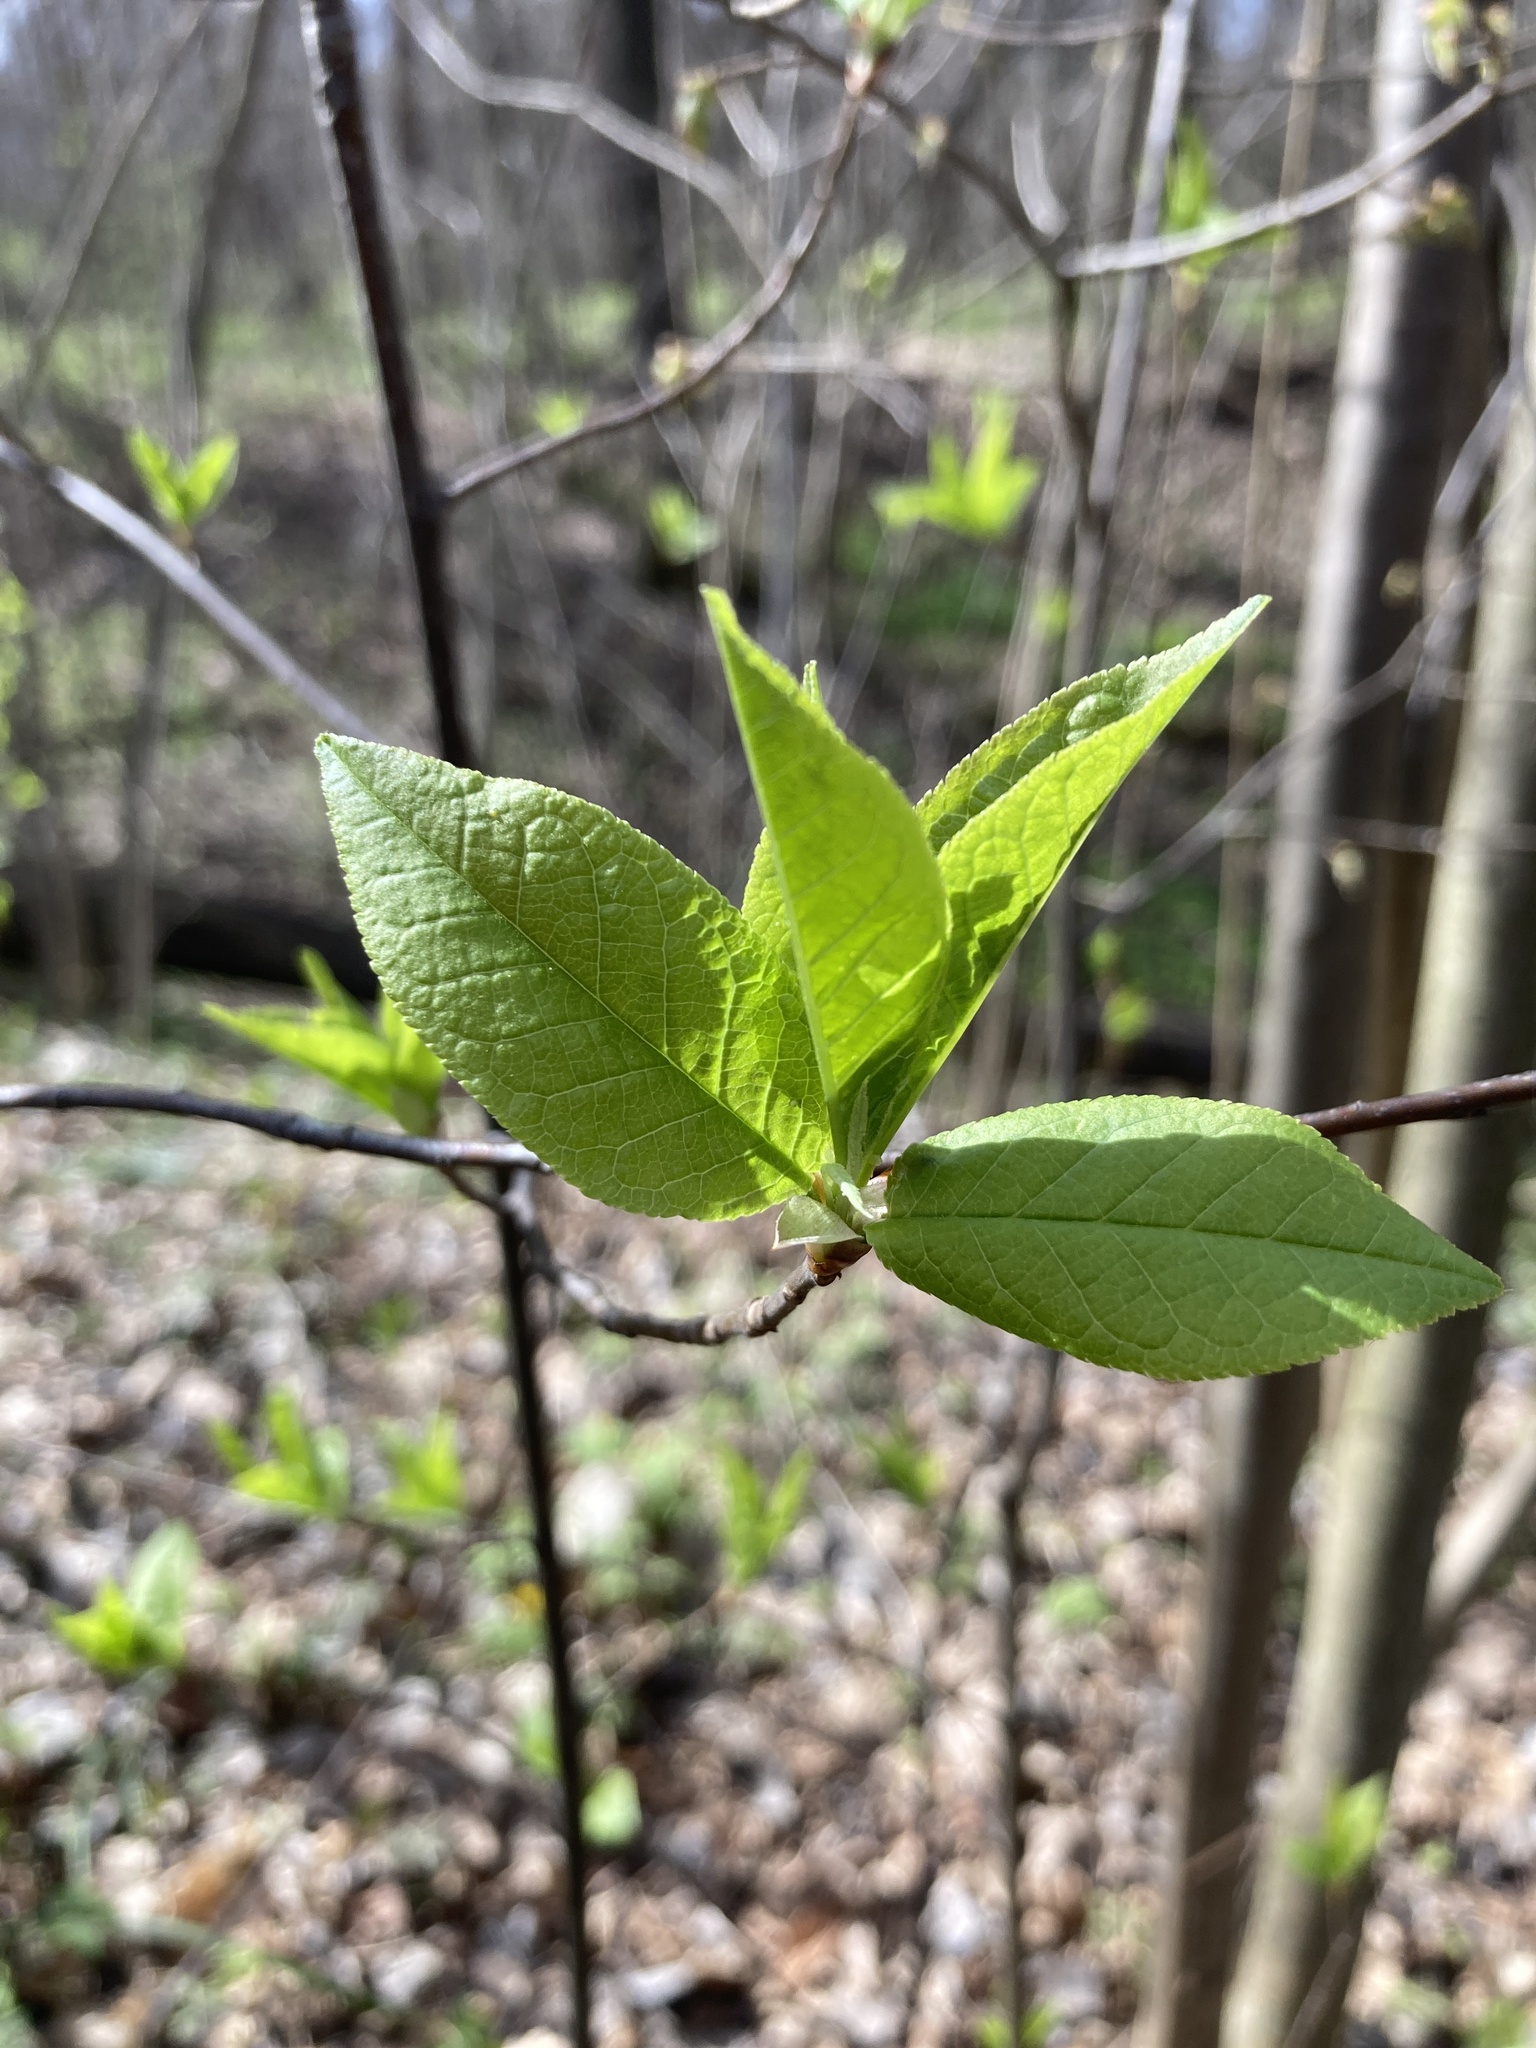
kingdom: Plantae
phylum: Tracheophyta
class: Magnoliopsida
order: Rosales
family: Rosaceae
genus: Prunus
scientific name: Prunus padus
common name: Bird cherry
